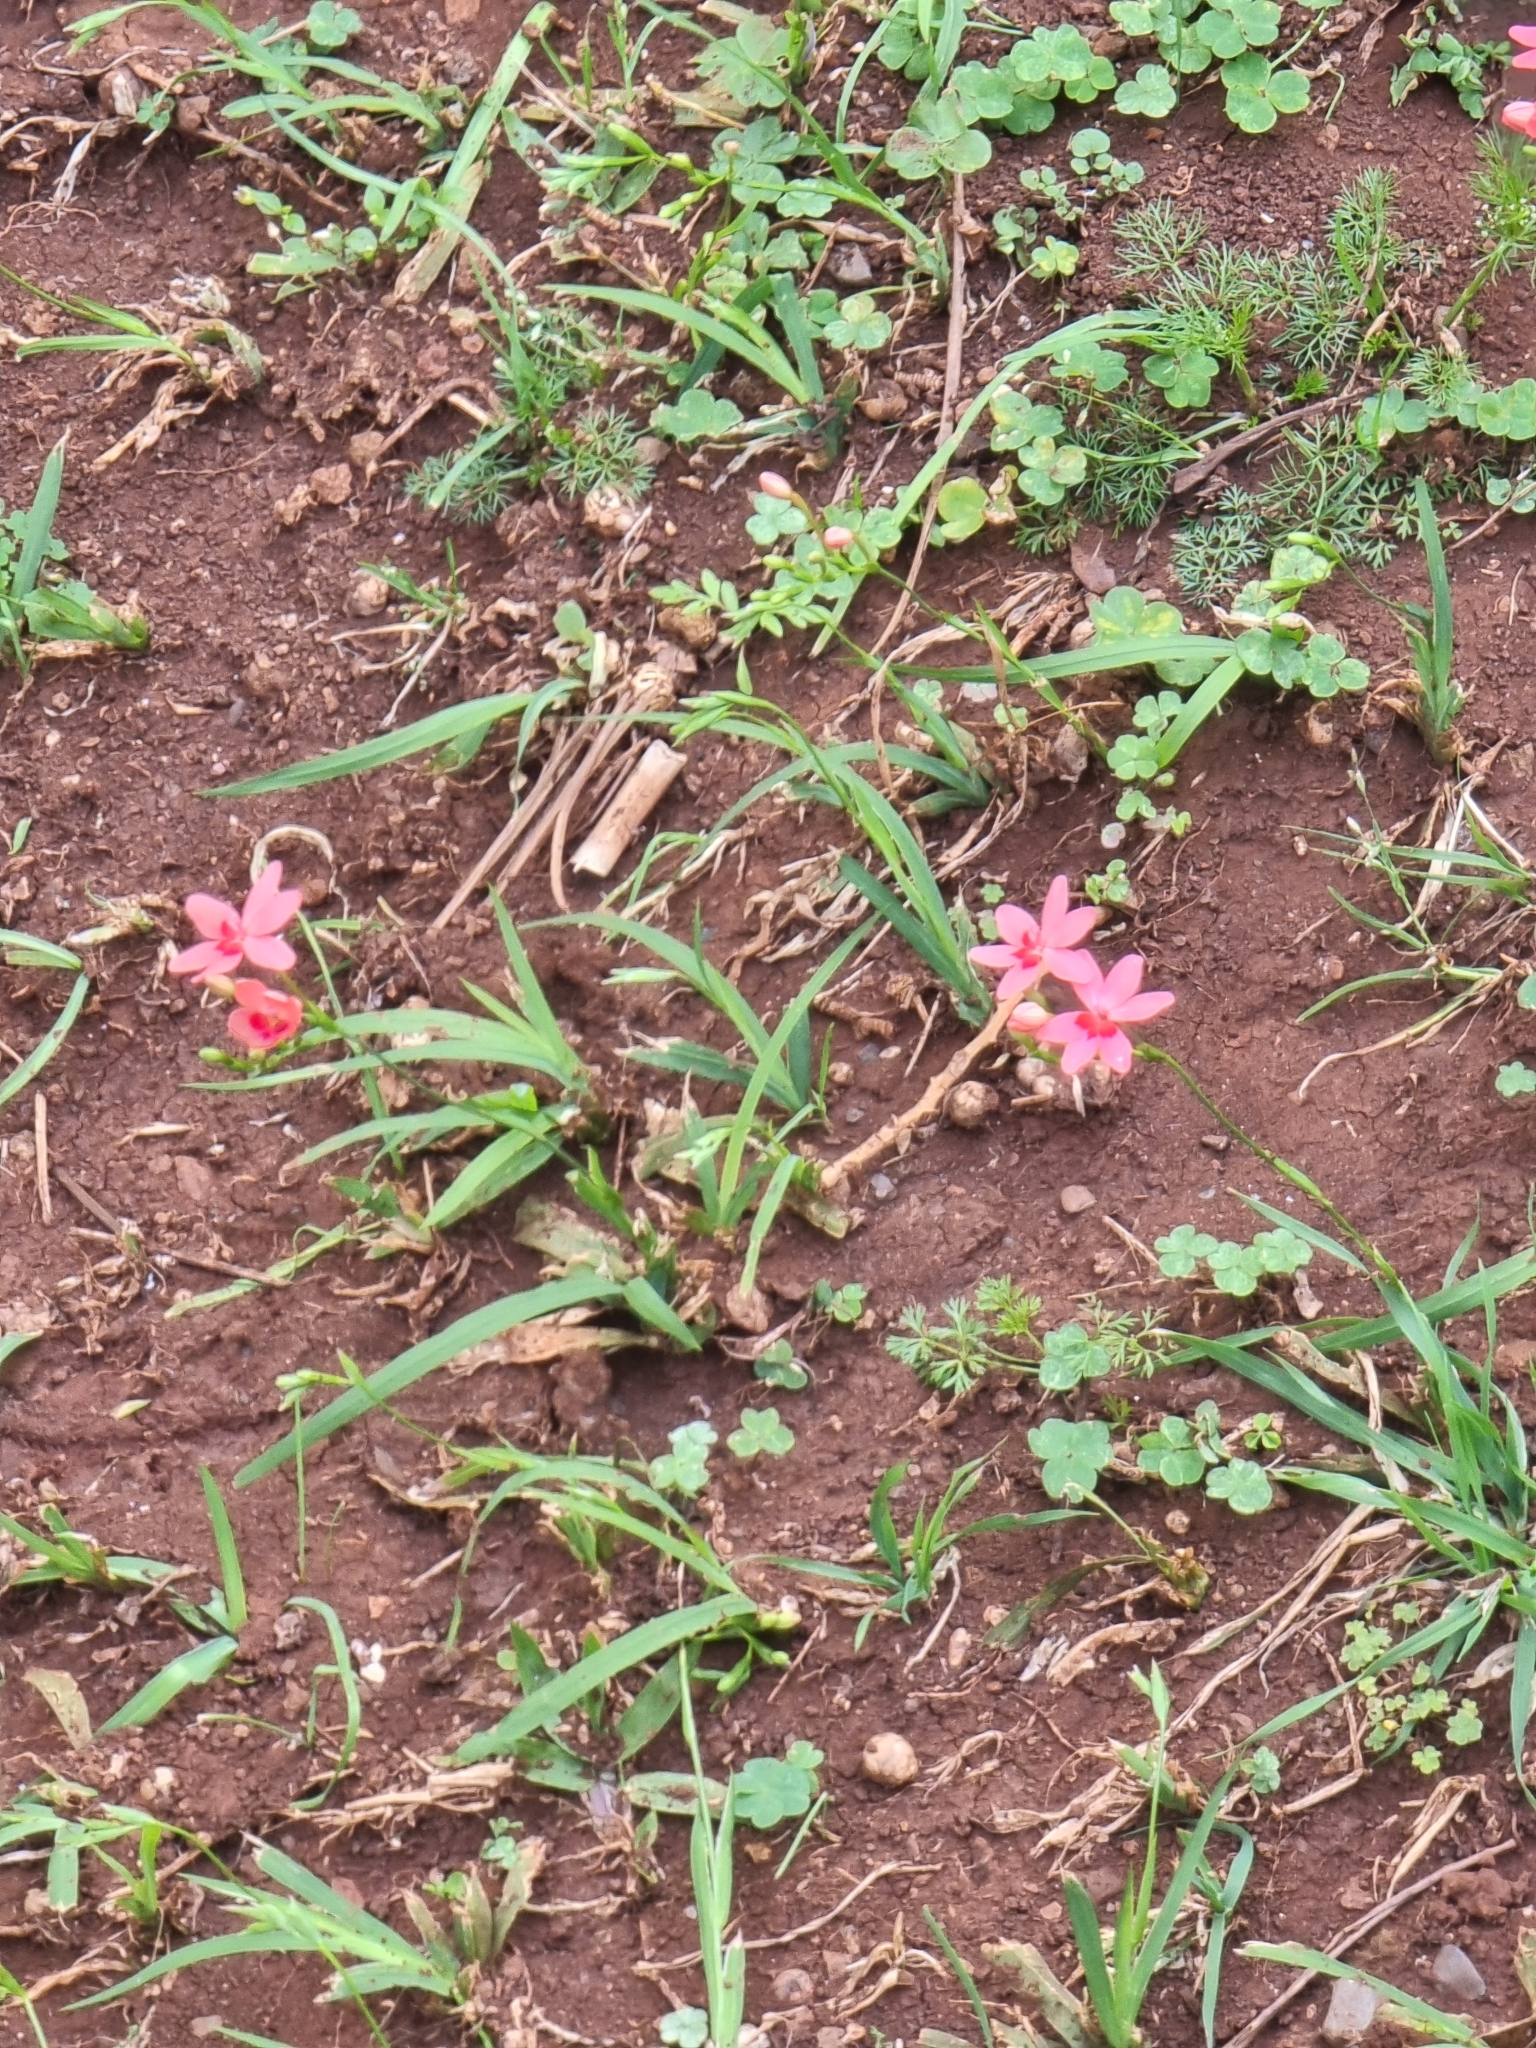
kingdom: Plantae
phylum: Tracheophyta
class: Liliopsida
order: Asparagales
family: Iridaceae
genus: Freesia
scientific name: Freesia laxa
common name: False freesia
